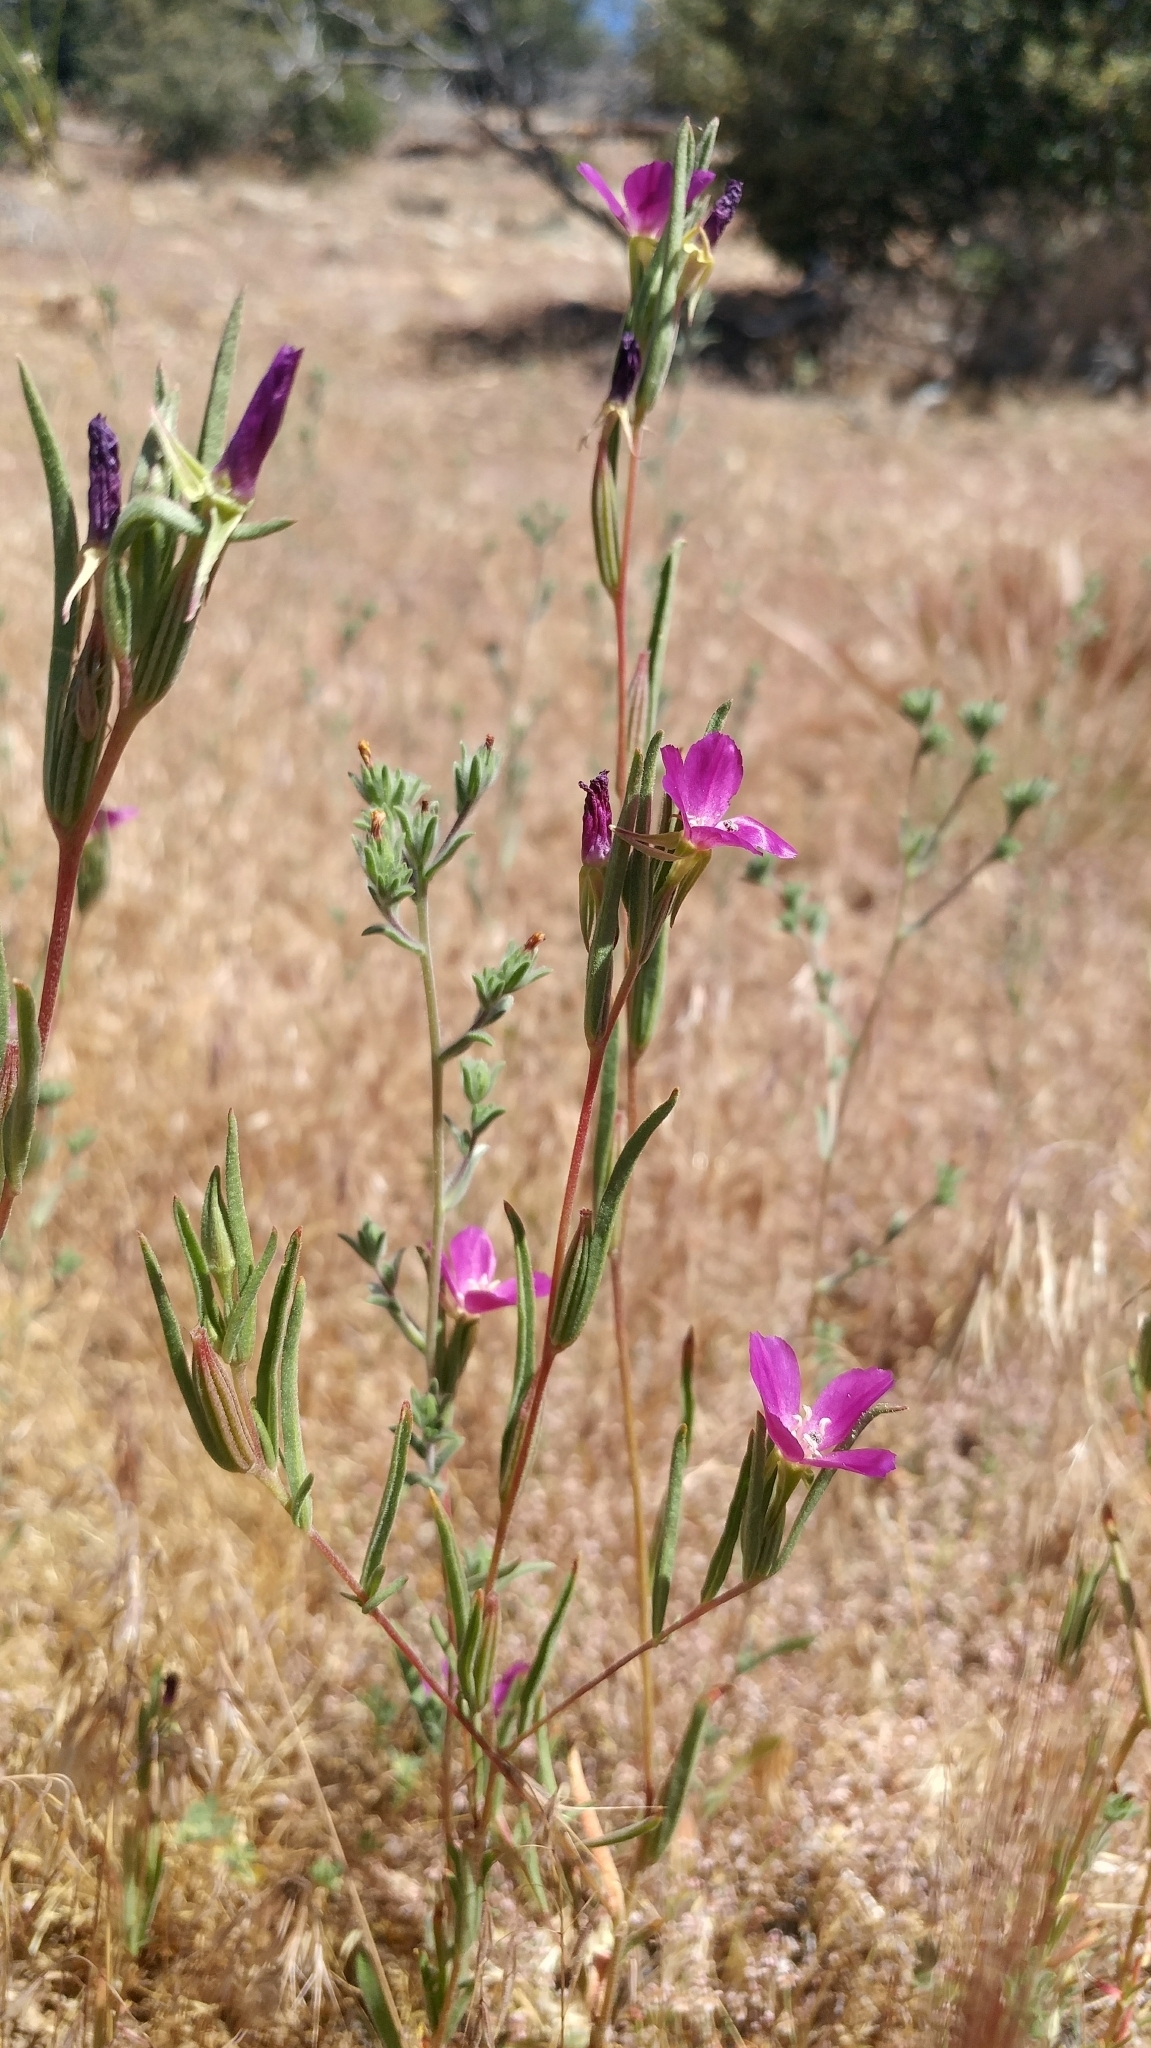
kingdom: Plantae
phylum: Tracheophyta
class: Magnoliopsida
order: Myrtales
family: Onagraceae
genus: Clarkia
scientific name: Clarkia purpurea
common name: Purple clarkia
